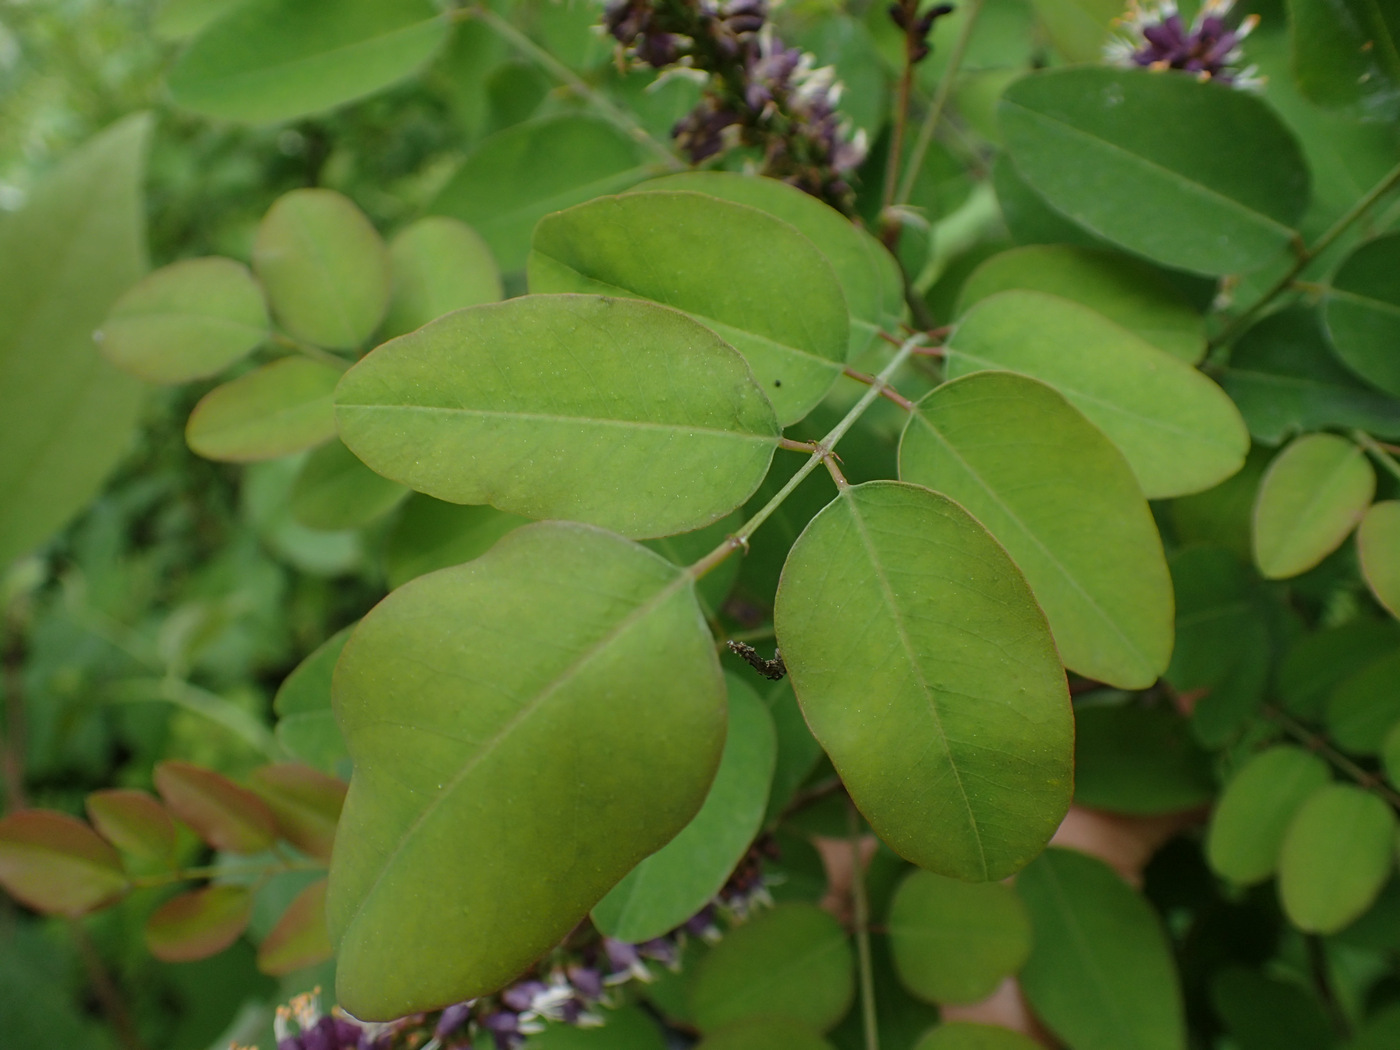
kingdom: Plantae
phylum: Tracheophyta
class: Magnoliopsida
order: Fabales
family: Fabaceae
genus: Amorpha
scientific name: Amorpha glabra
